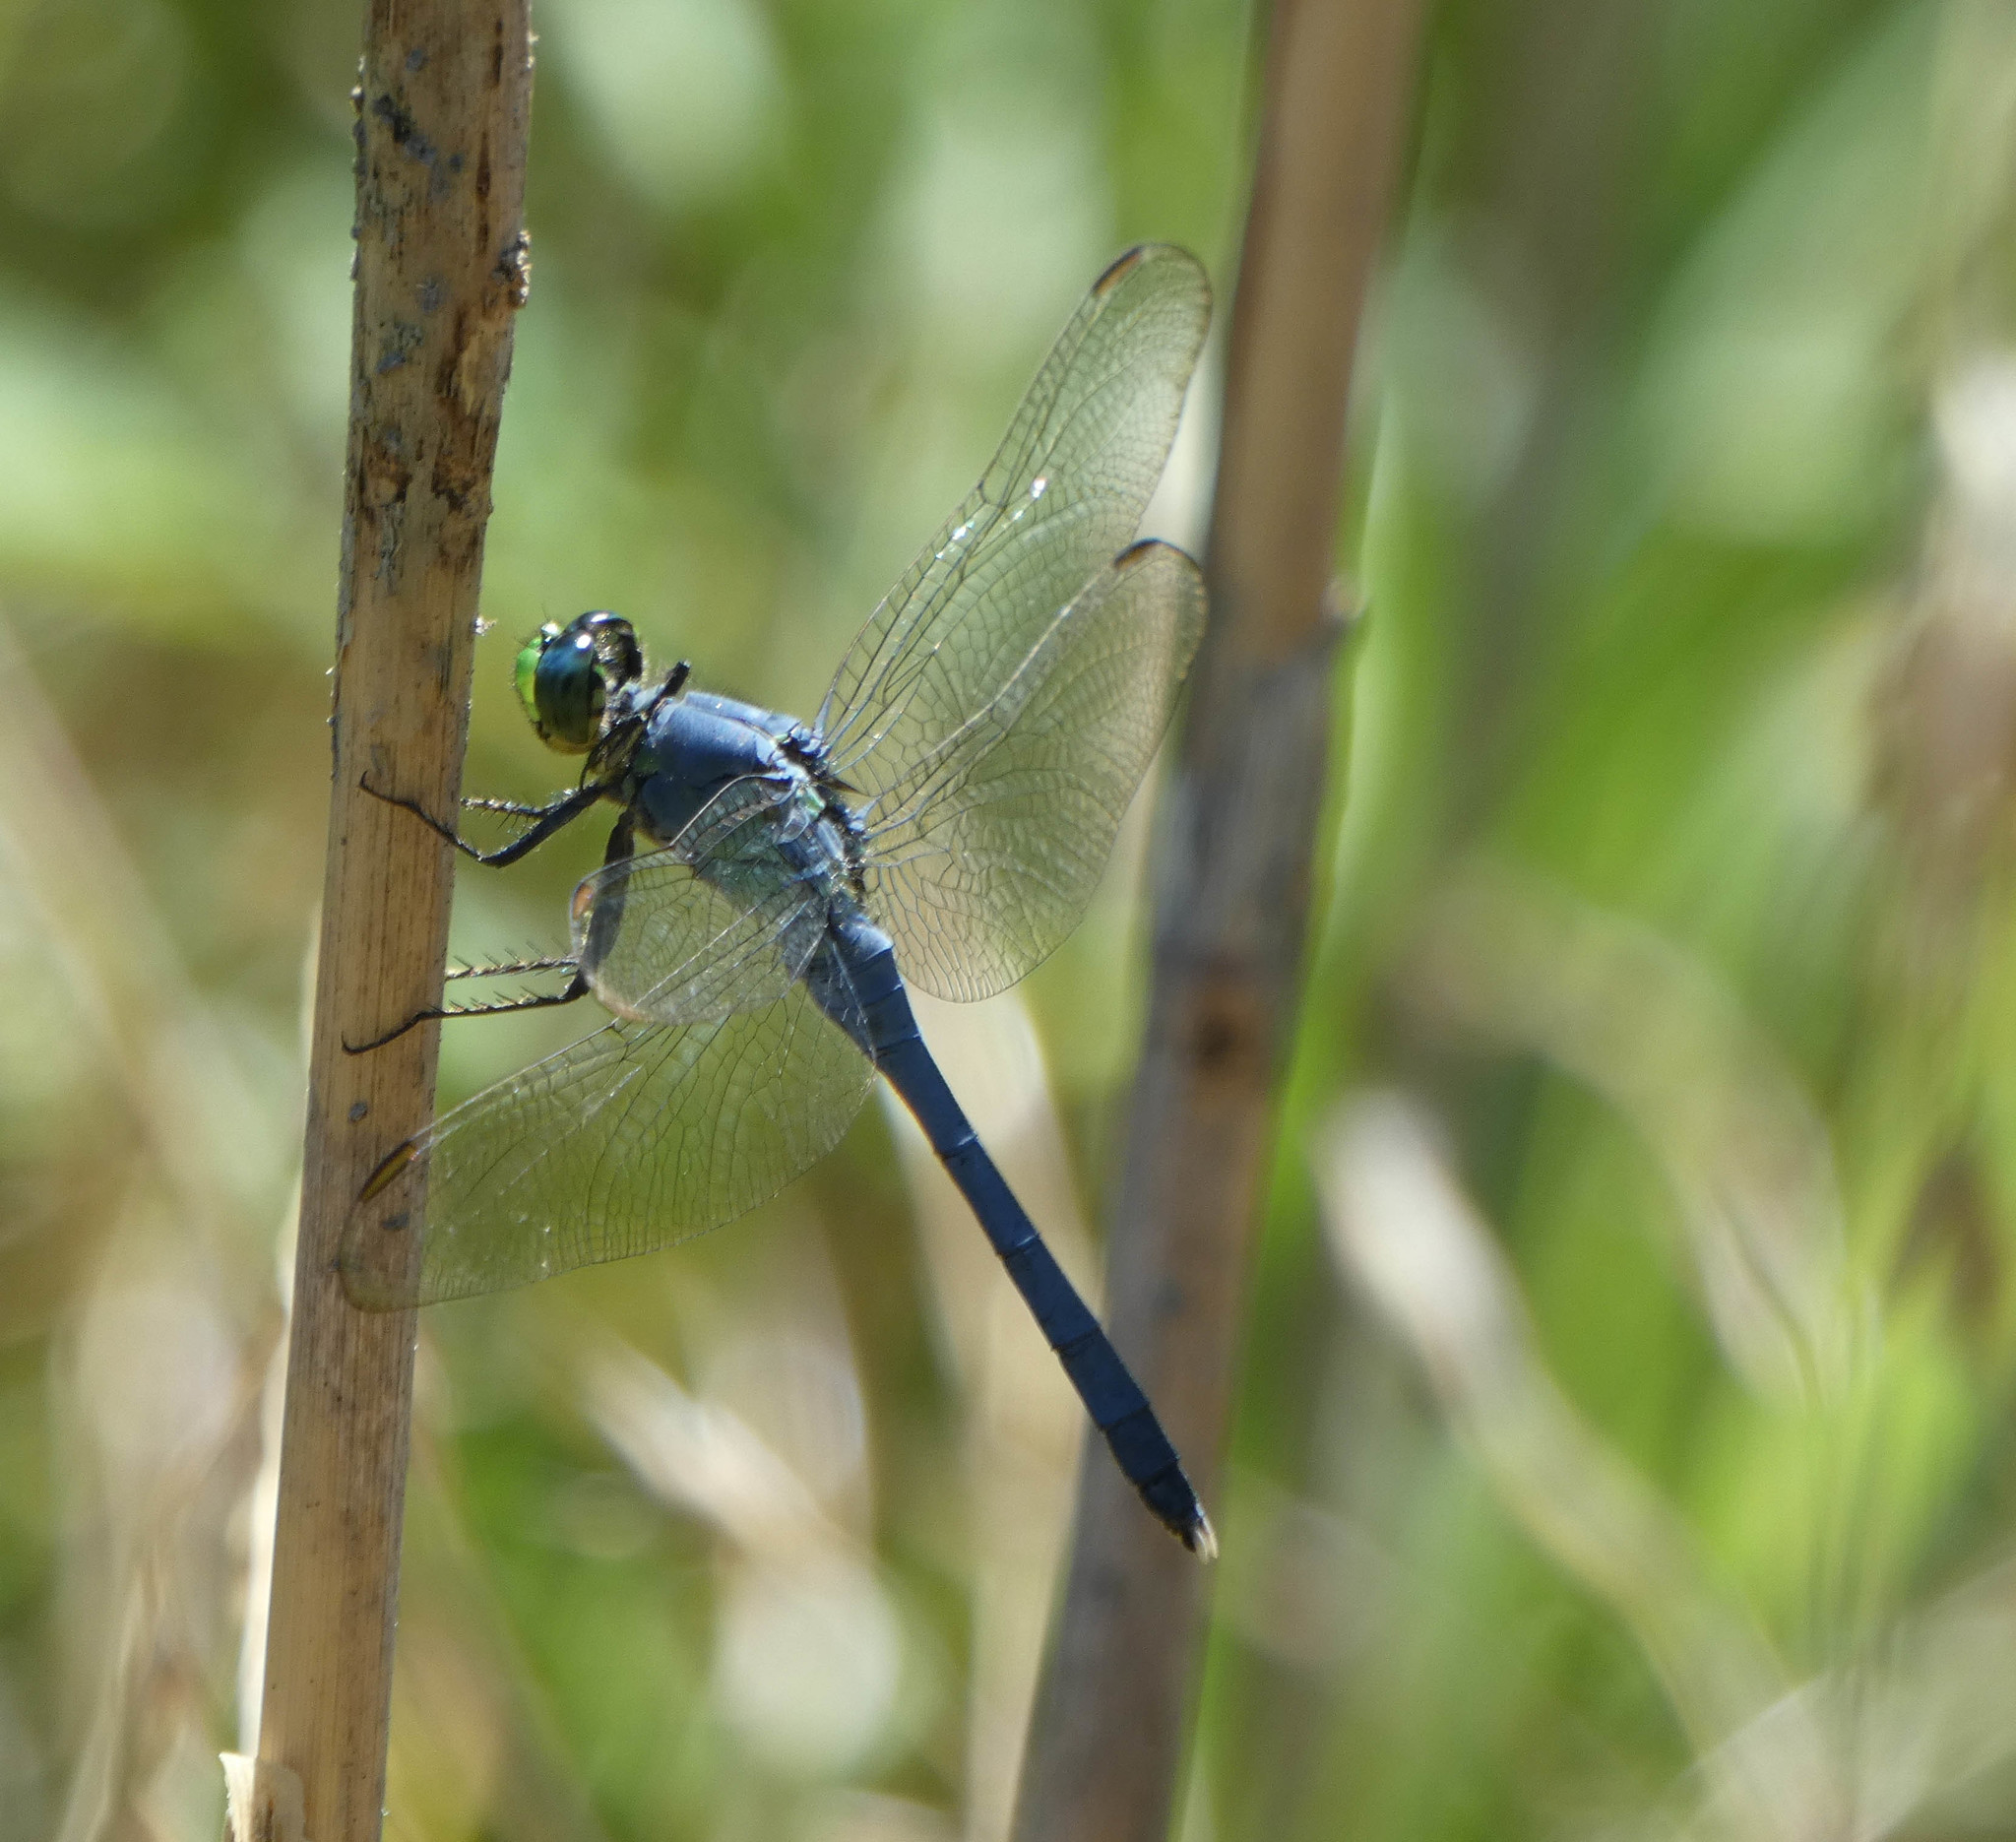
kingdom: Animalia
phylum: Arthropoda
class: Insecta
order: Odonata
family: Libellulidae
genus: Erythemis
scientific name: Erythemis simplicicollis
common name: Eastern pondhawk
